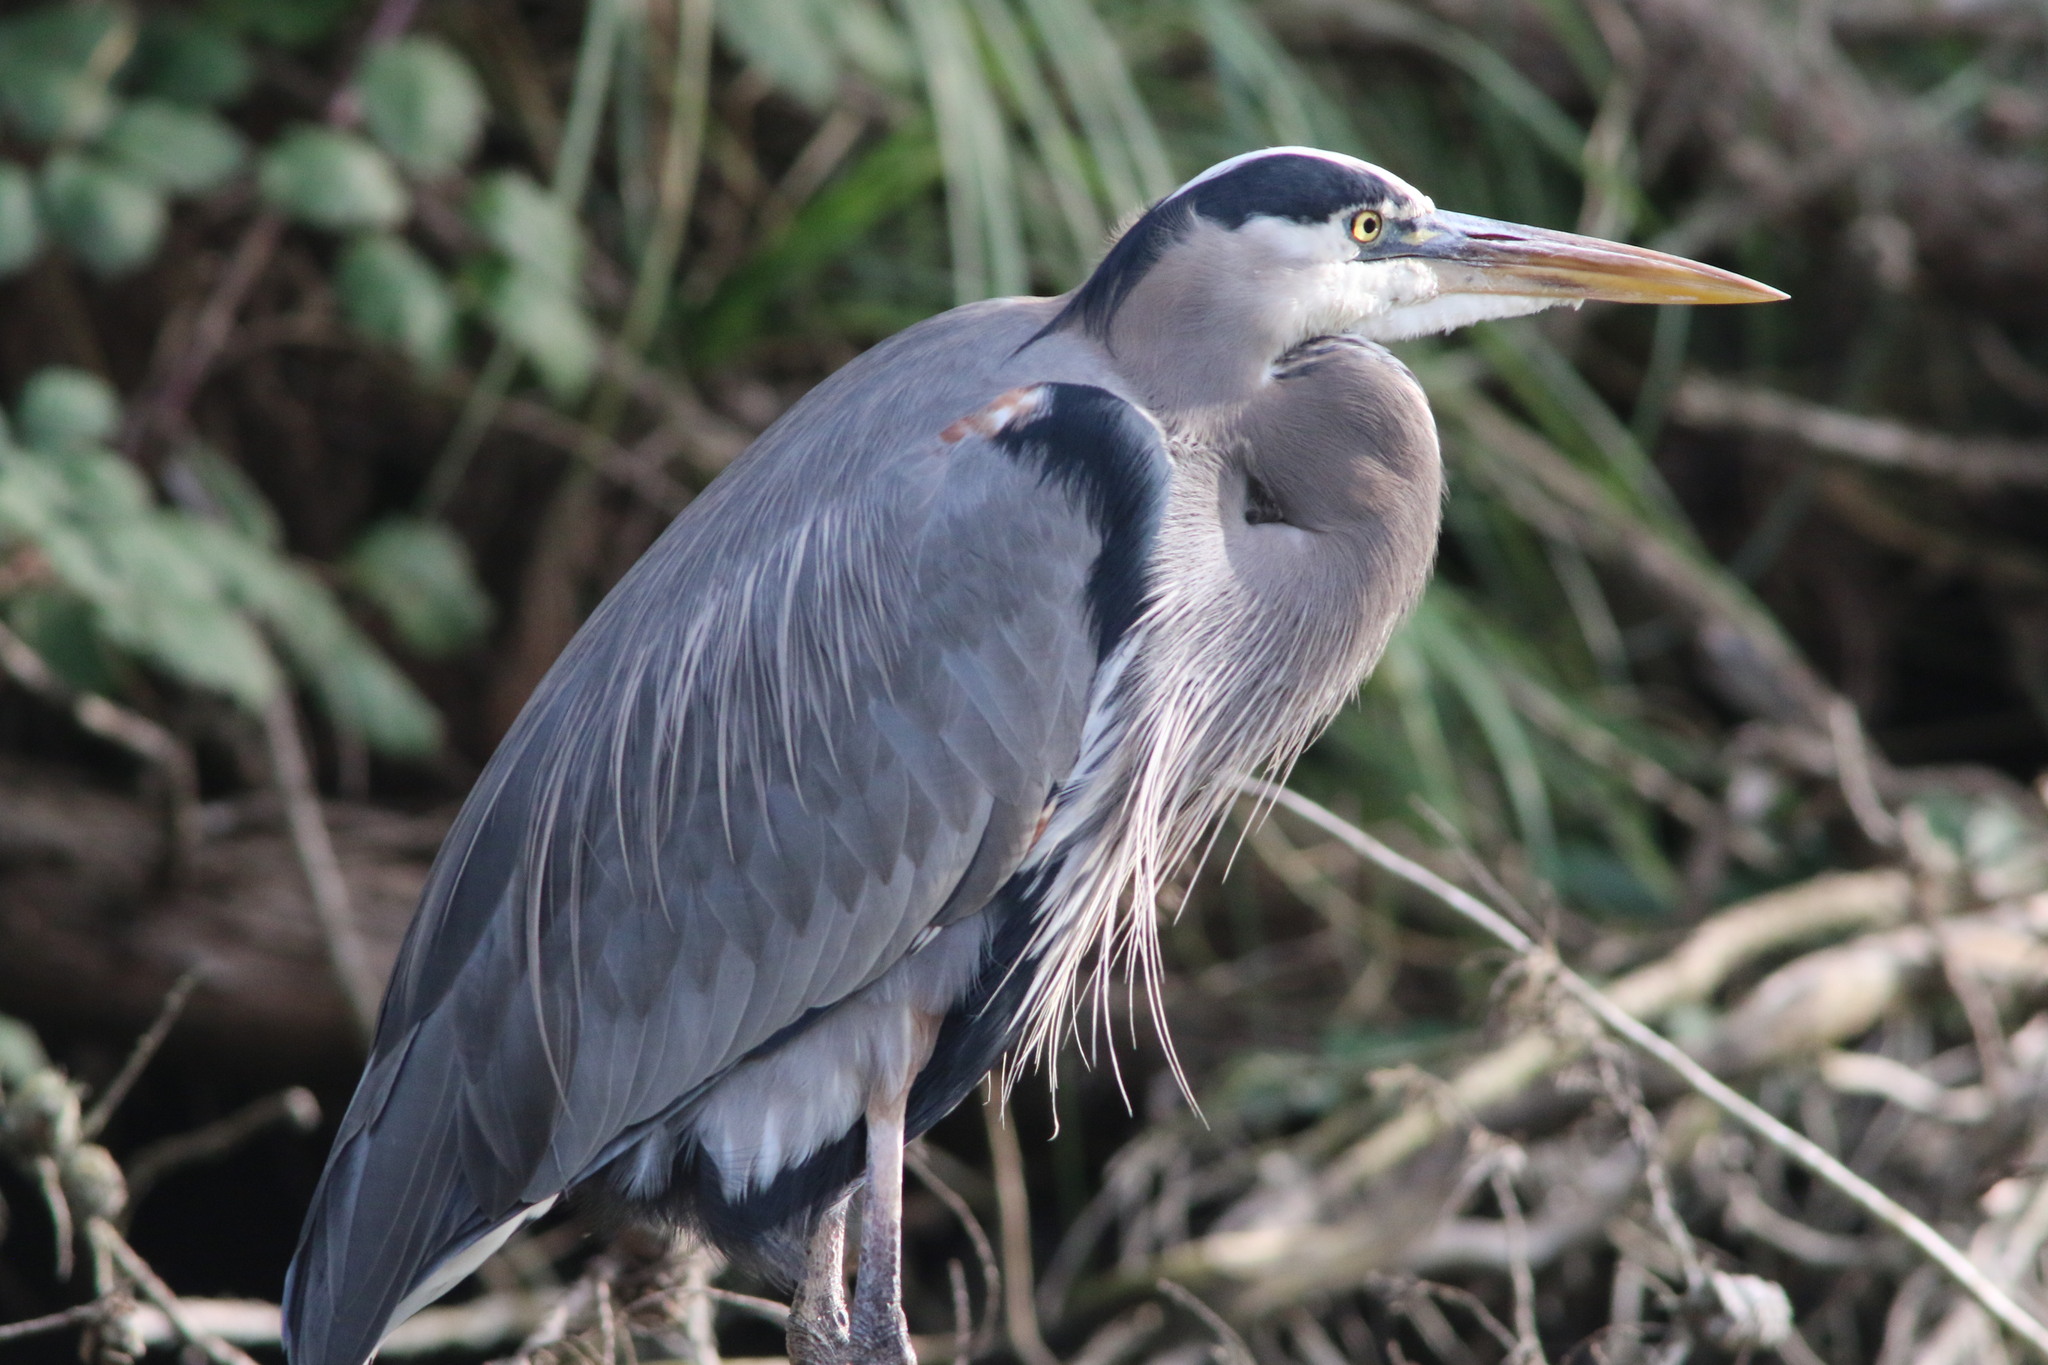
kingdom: Animalia
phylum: Chordata
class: Aves
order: Pelecaniformes
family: Ardeidae
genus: Ardea
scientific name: Ardea herodias
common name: Great blue heron
